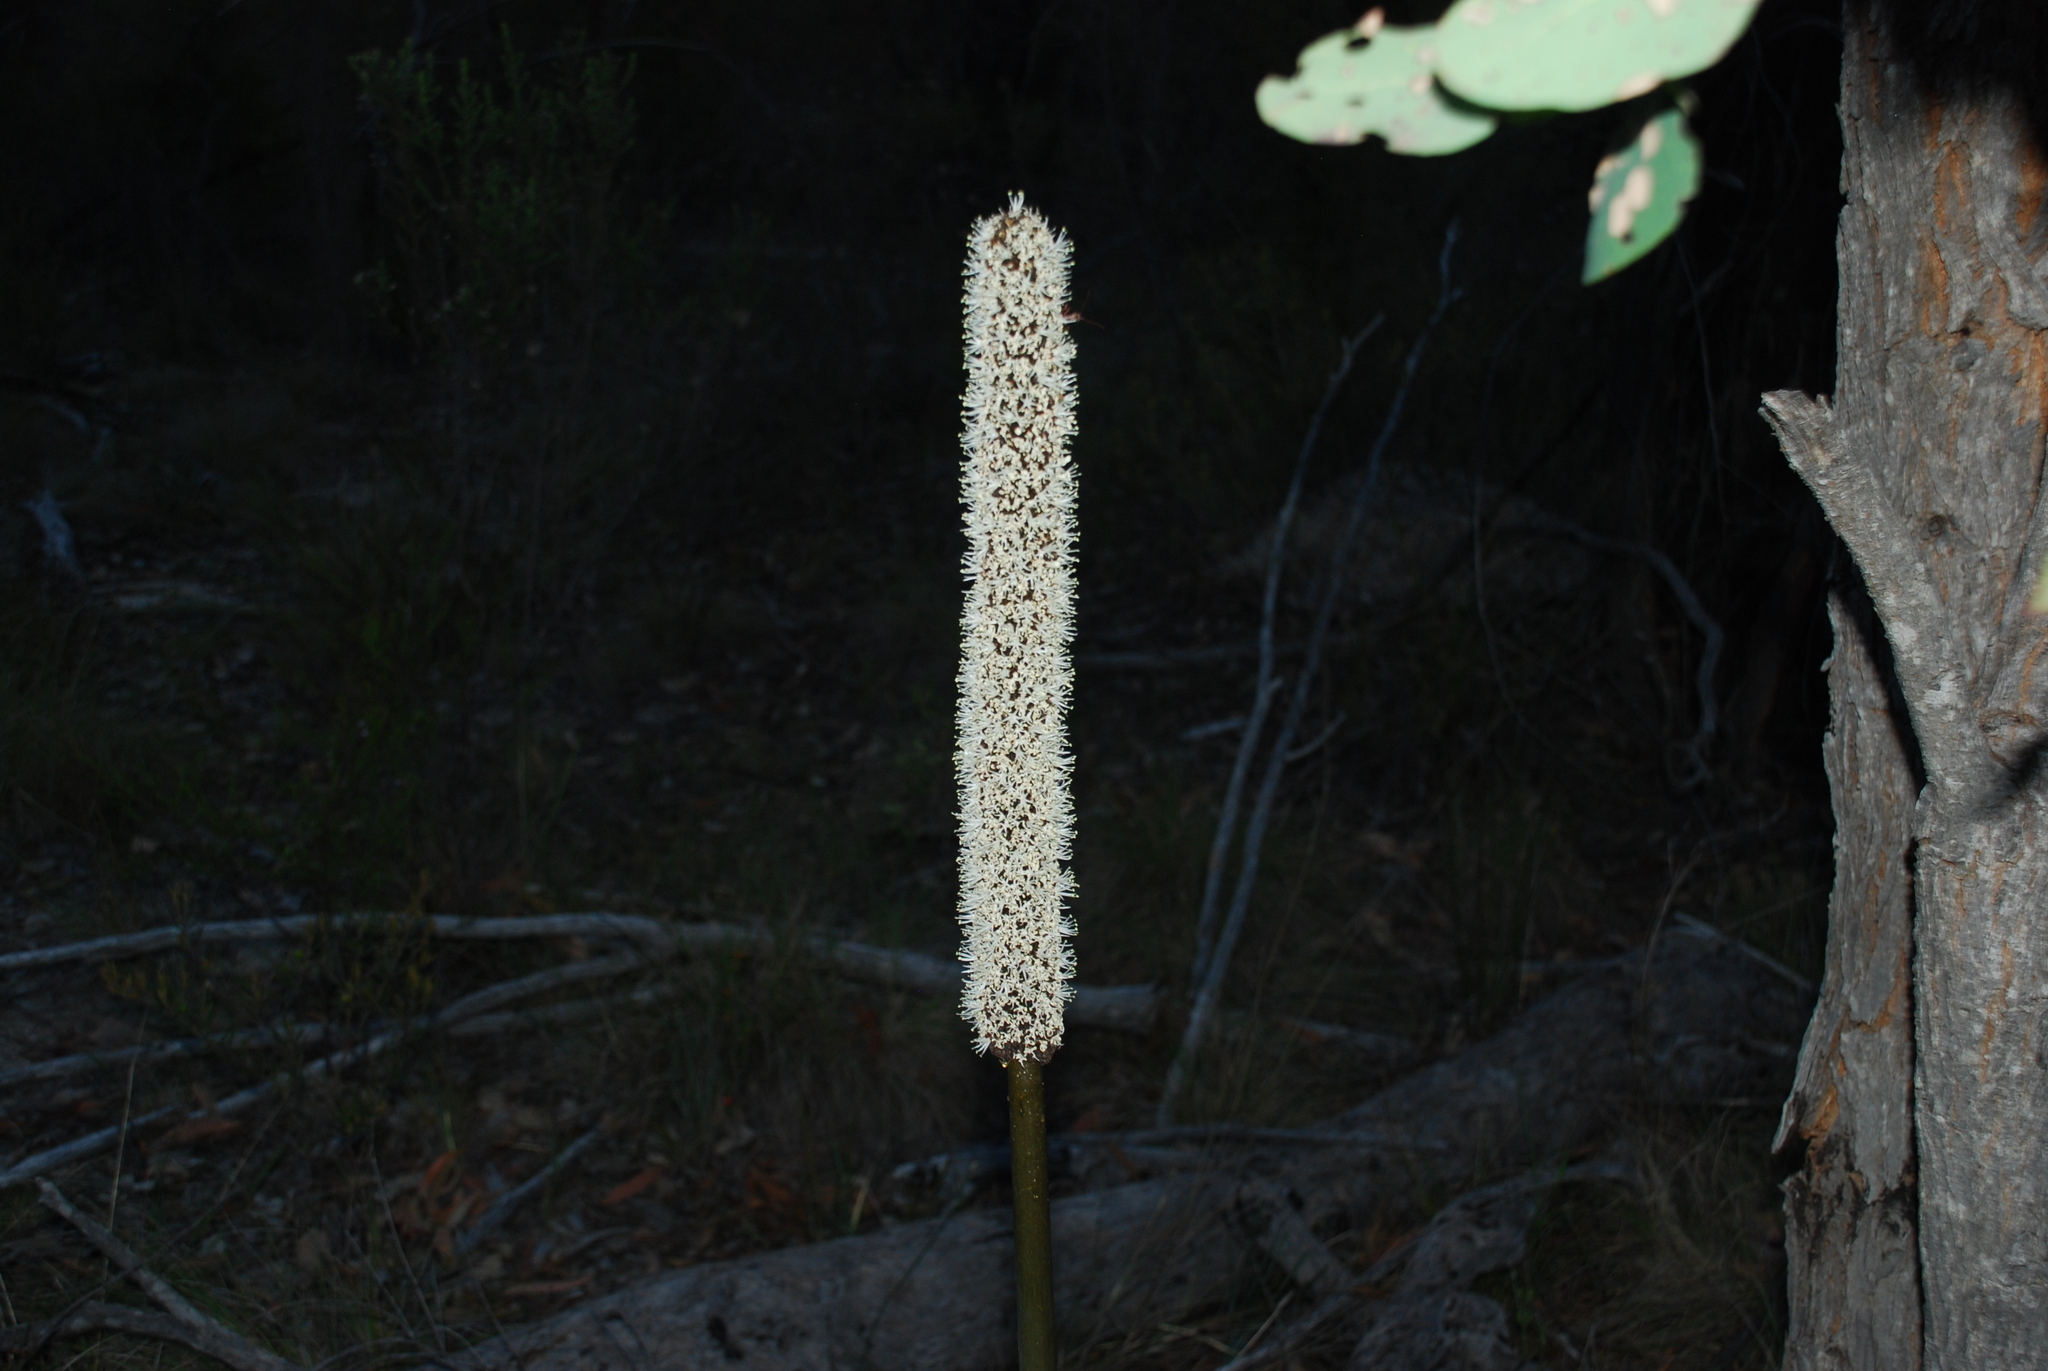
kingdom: Plantae
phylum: Tracheophyta
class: Liliopsida
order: Asparagales
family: Asphodelaceae
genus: Xanthorrhoea
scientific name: Xanthorrhoea glauca
